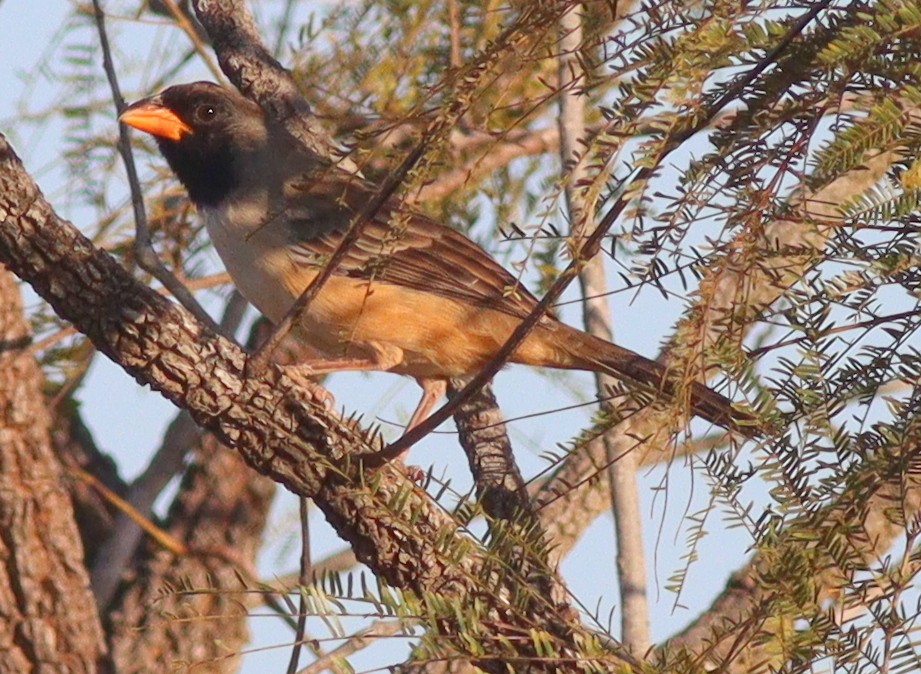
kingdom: Animalia
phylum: Chordata
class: Aves
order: Passeriformes
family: Thraupidae
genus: Saltatricula
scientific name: Saltatricula atricollis
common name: Black-throated saltator
